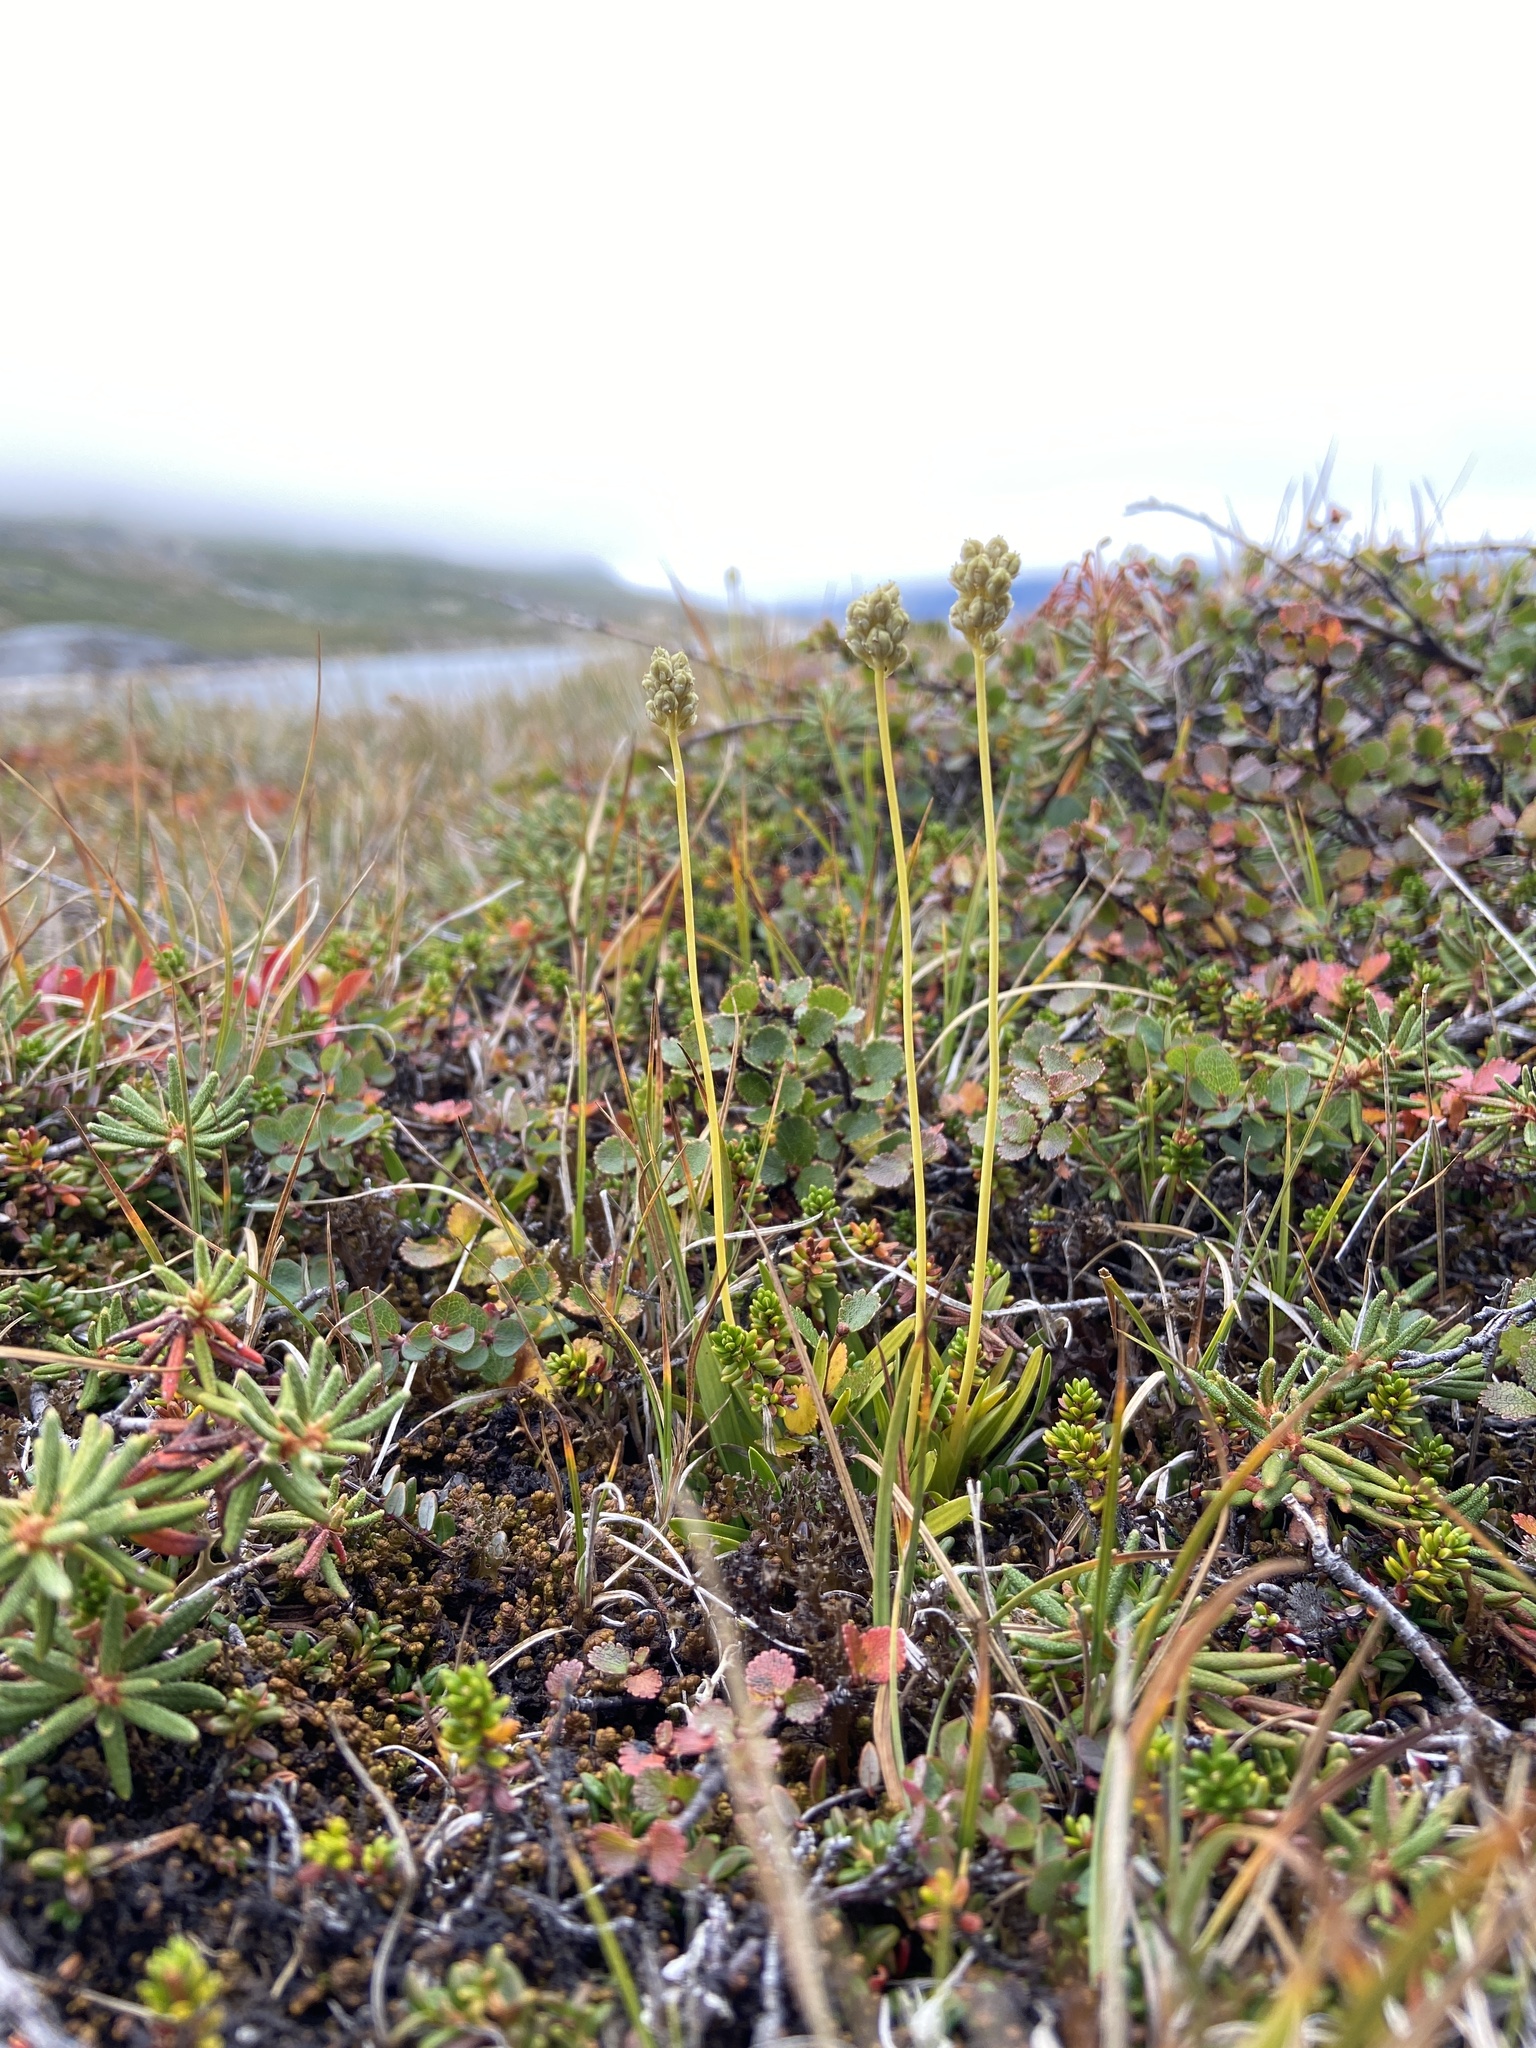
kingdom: Plantae
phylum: Tracheophyta
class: Liliopsida
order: Alismatales
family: Tofieldiaceae
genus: Tofieldia
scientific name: Tofieldia pusilla
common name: Scottish false asphodel
